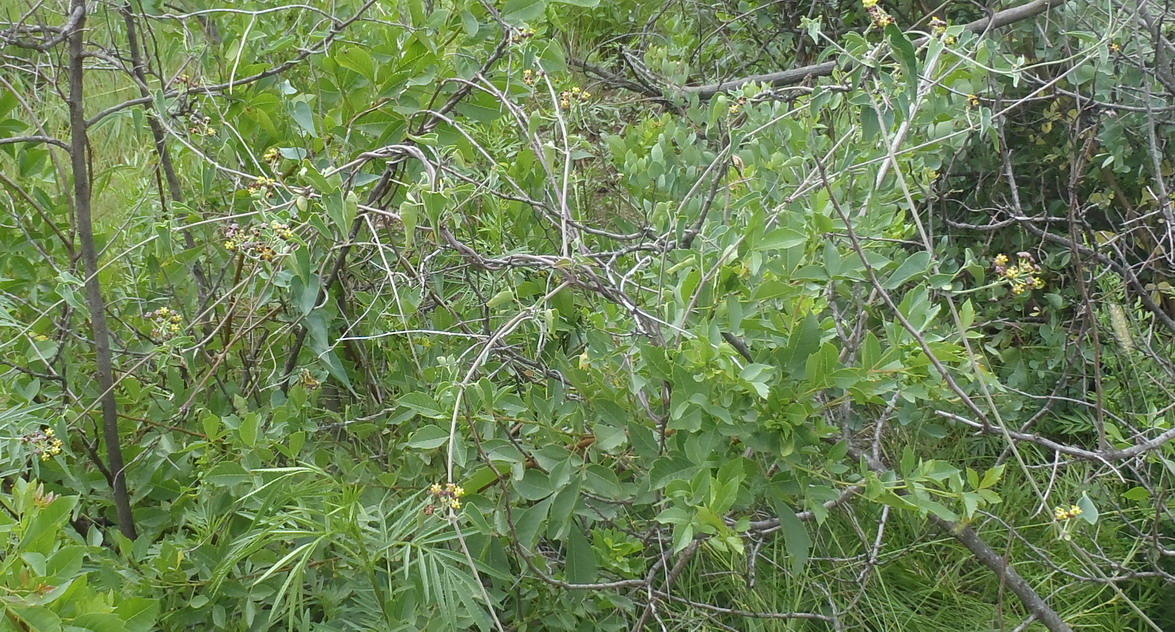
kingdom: Plantae
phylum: Tracheophyta
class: Magnoliopsida
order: Gentianales
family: Apocynaceae
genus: Cynanchum
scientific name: Cynanchum
